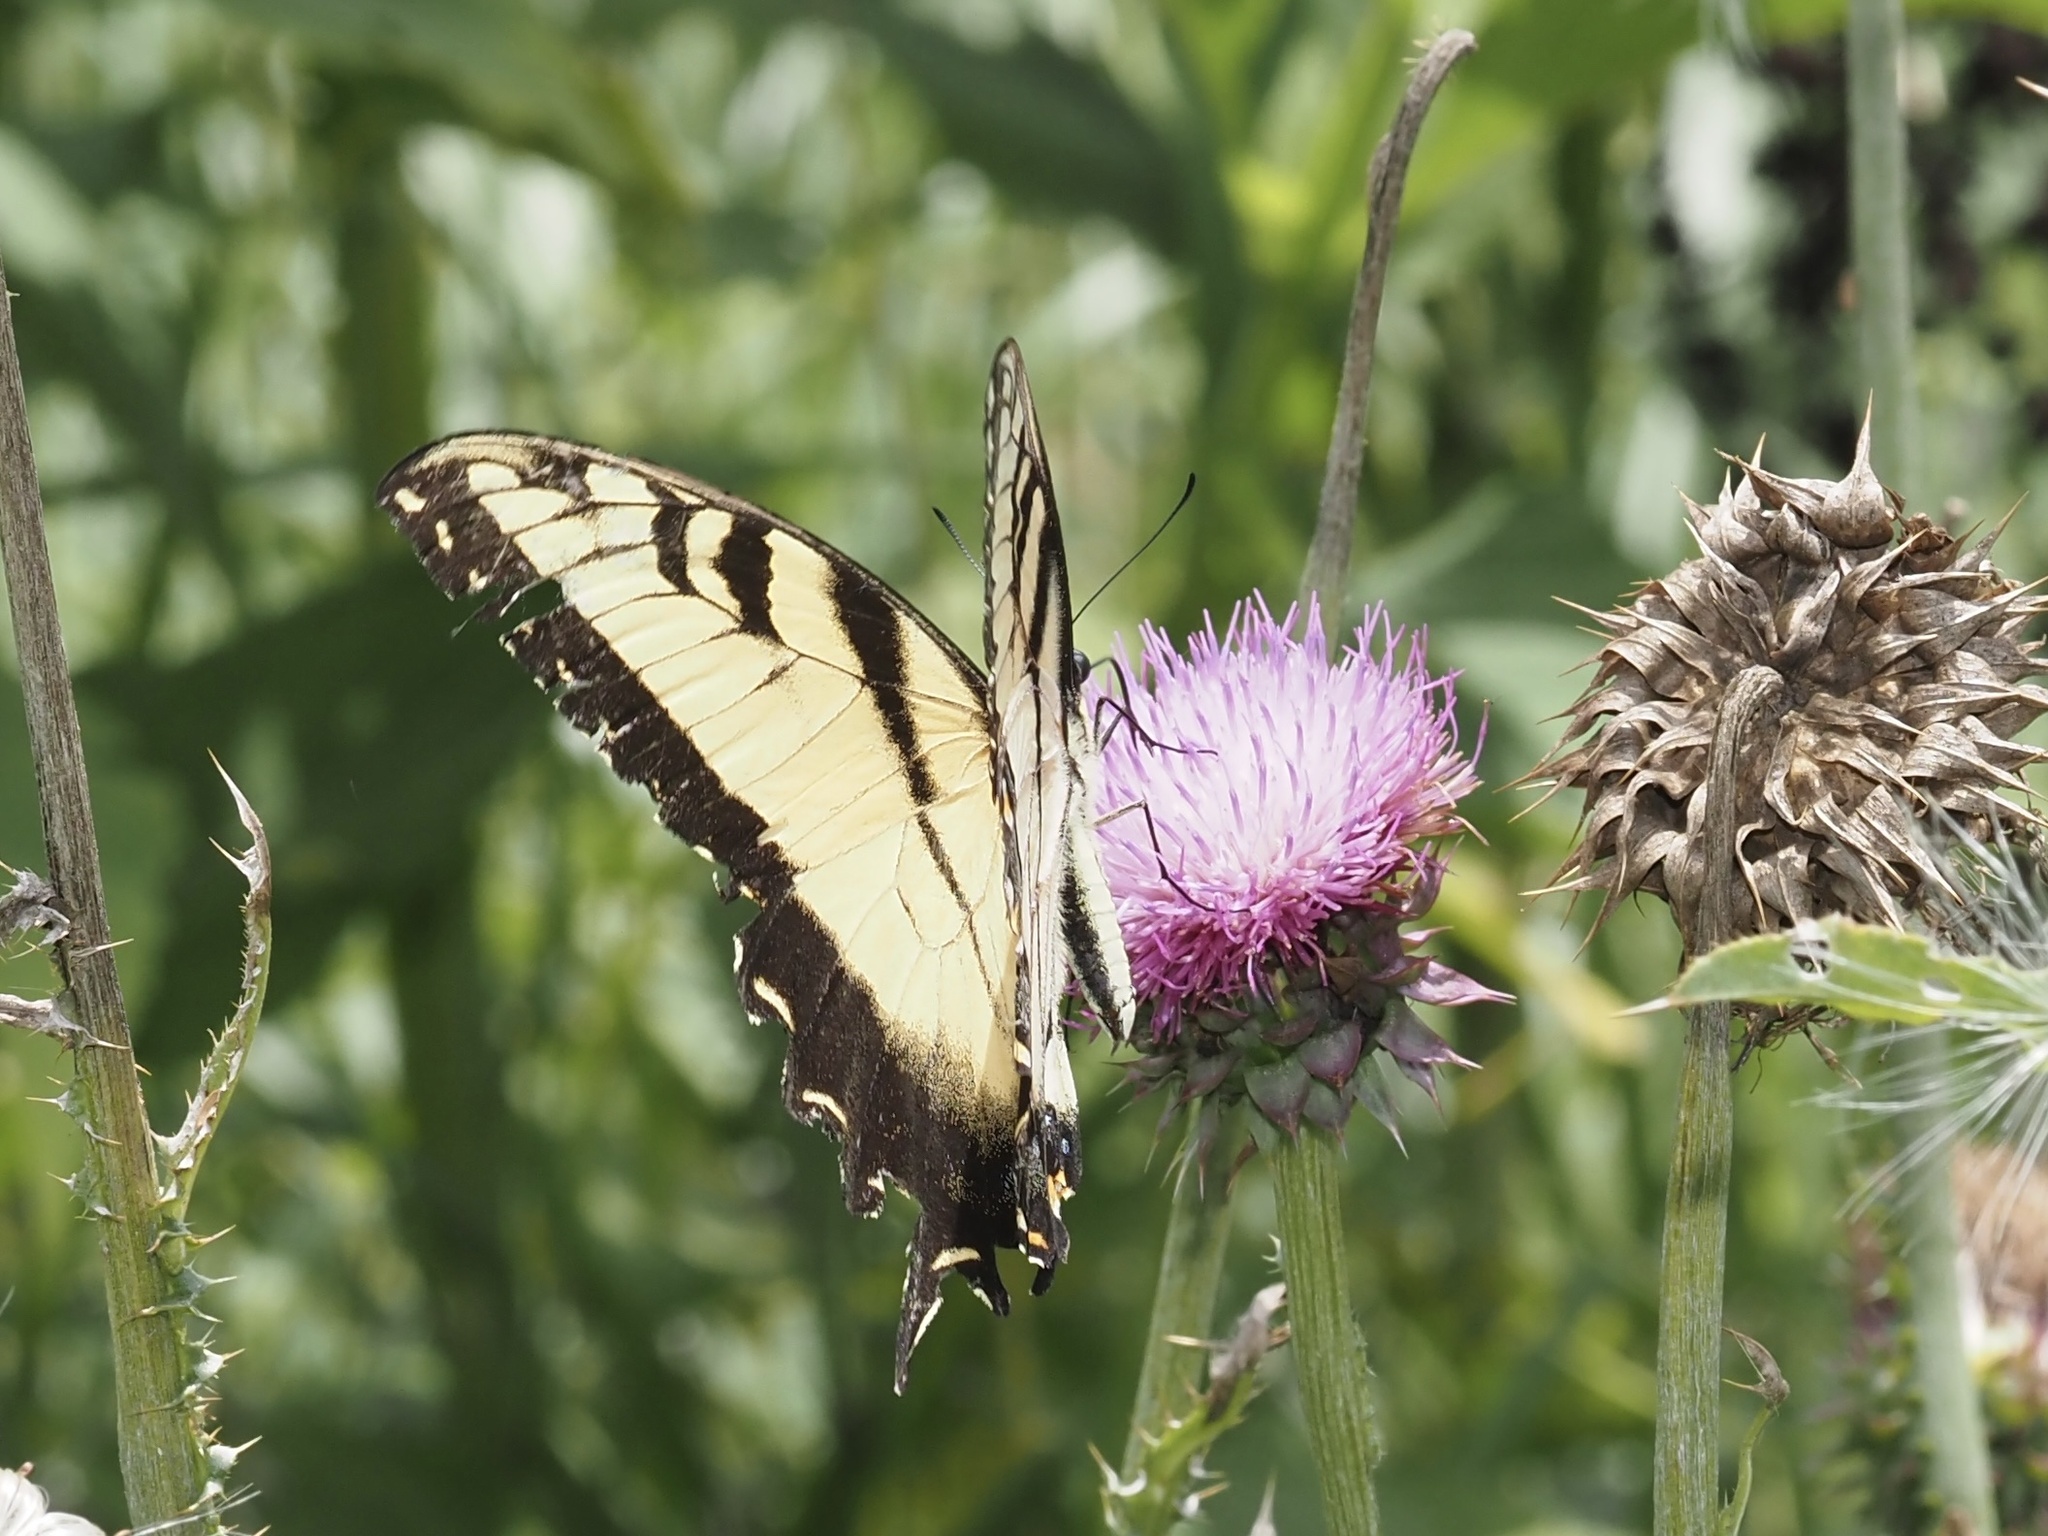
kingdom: Animalia
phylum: Arthropoda
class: Insecta
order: Lepidoptera
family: Papilionidae
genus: Papilio
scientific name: Papilio glaucus
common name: Tiger swallowtail
